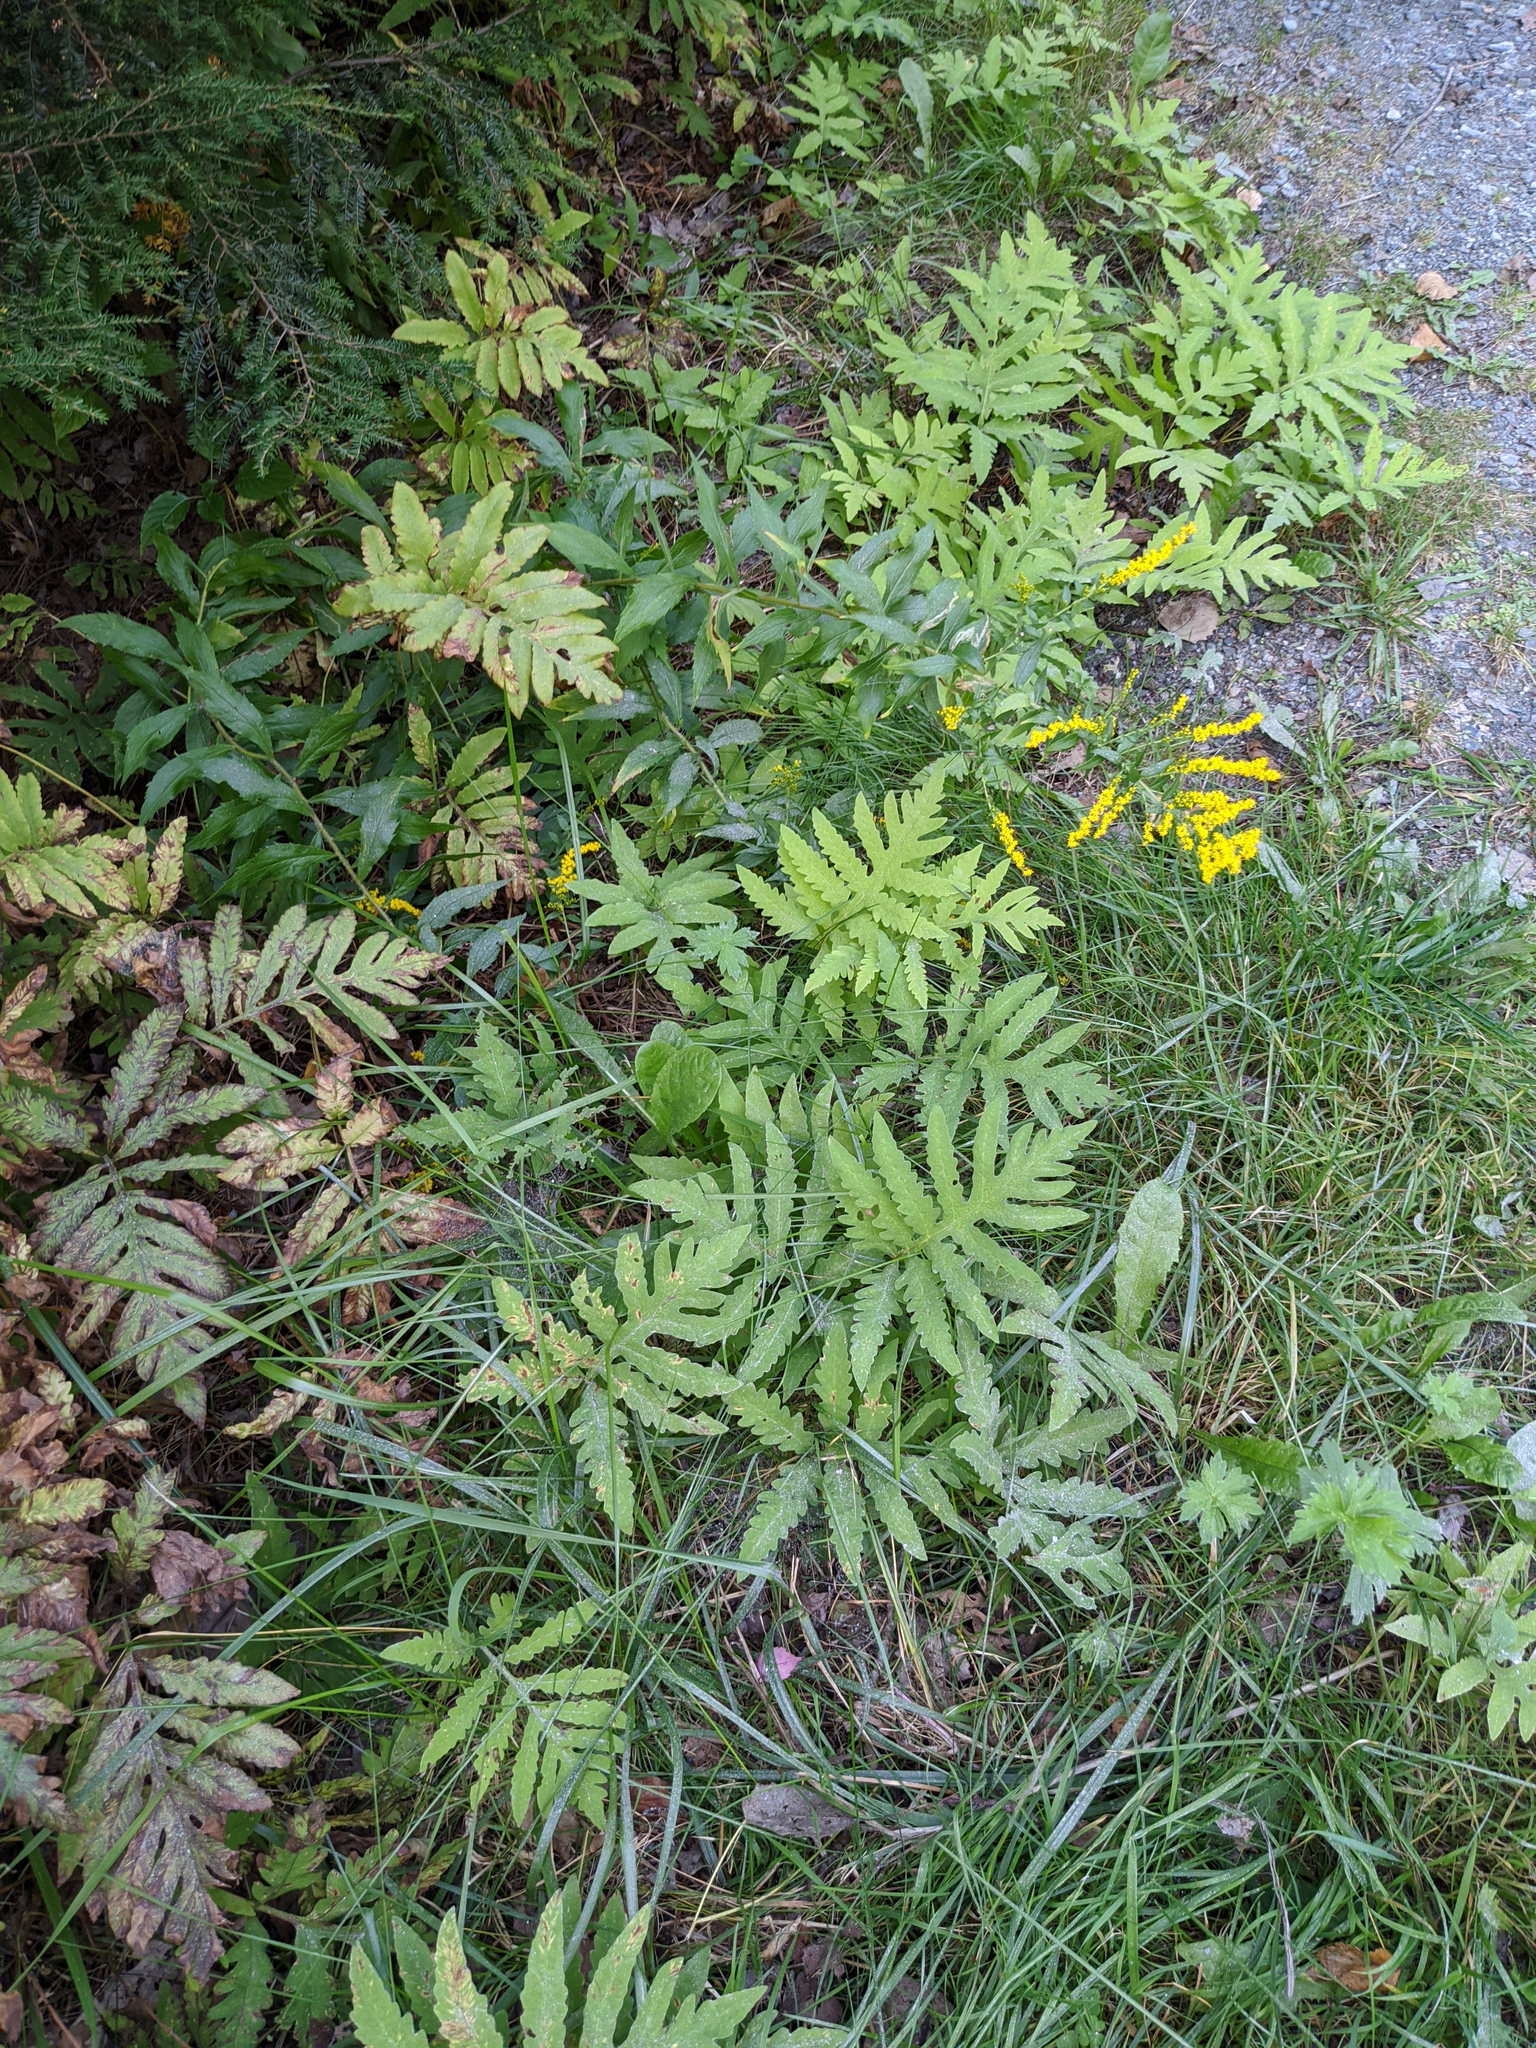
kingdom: Plantae
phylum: Tracheophyta
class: Polypodiopsida
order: Polypodiales
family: Onocleaceae
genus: Onoclea
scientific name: Onoclea sensibilis
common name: Sensitive fern
